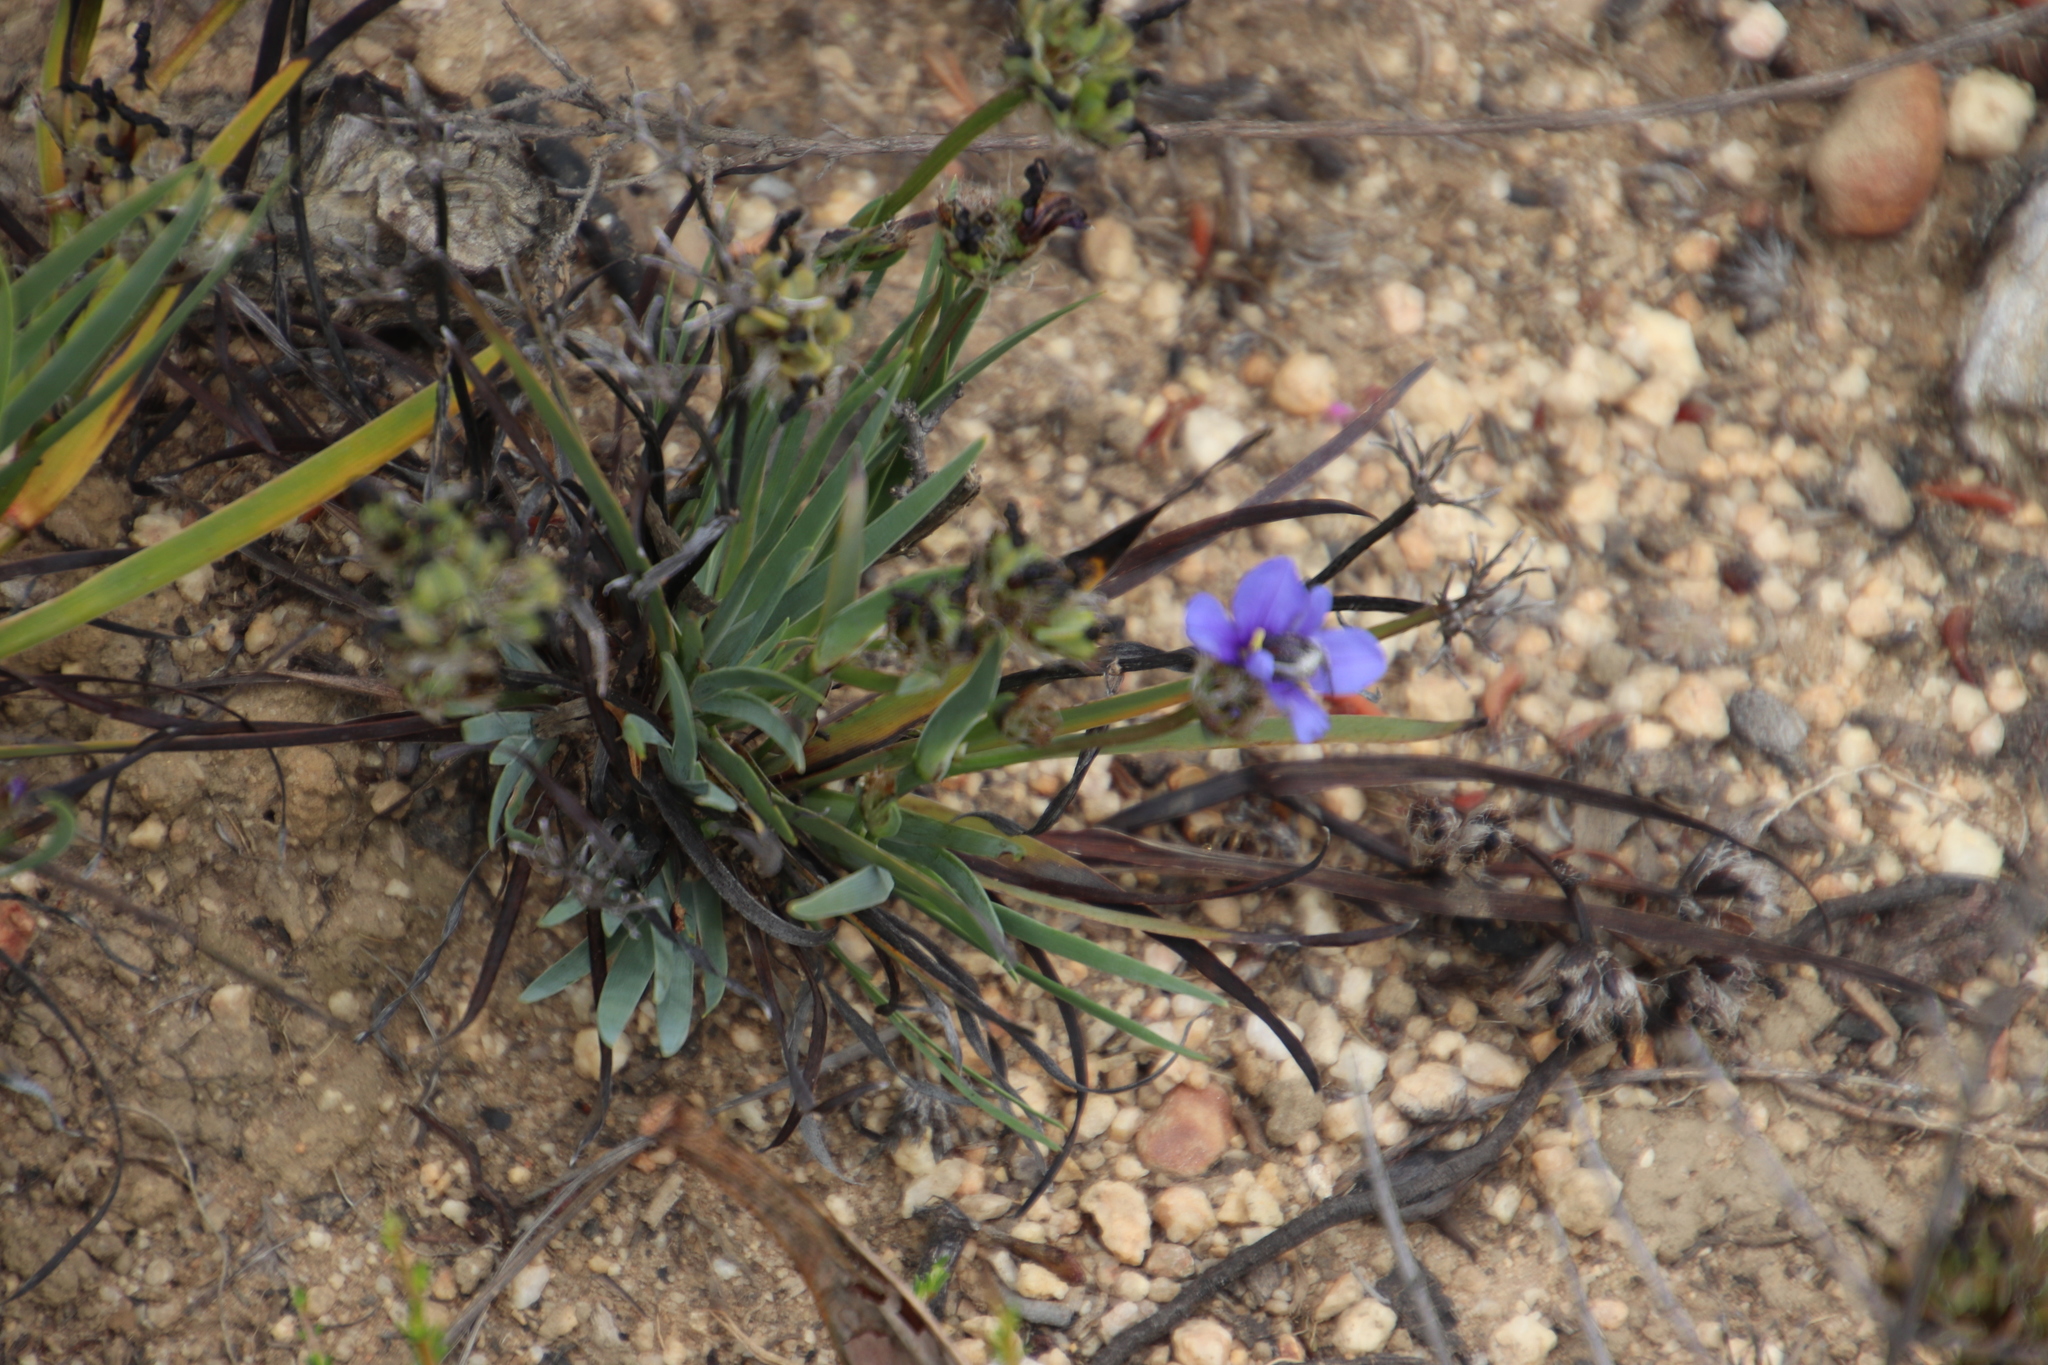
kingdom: Plantae
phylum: Tracheophyta
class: Liliopsida
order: Asparagales
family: Iridaceae
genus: Aristea
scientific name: Aristea africana
